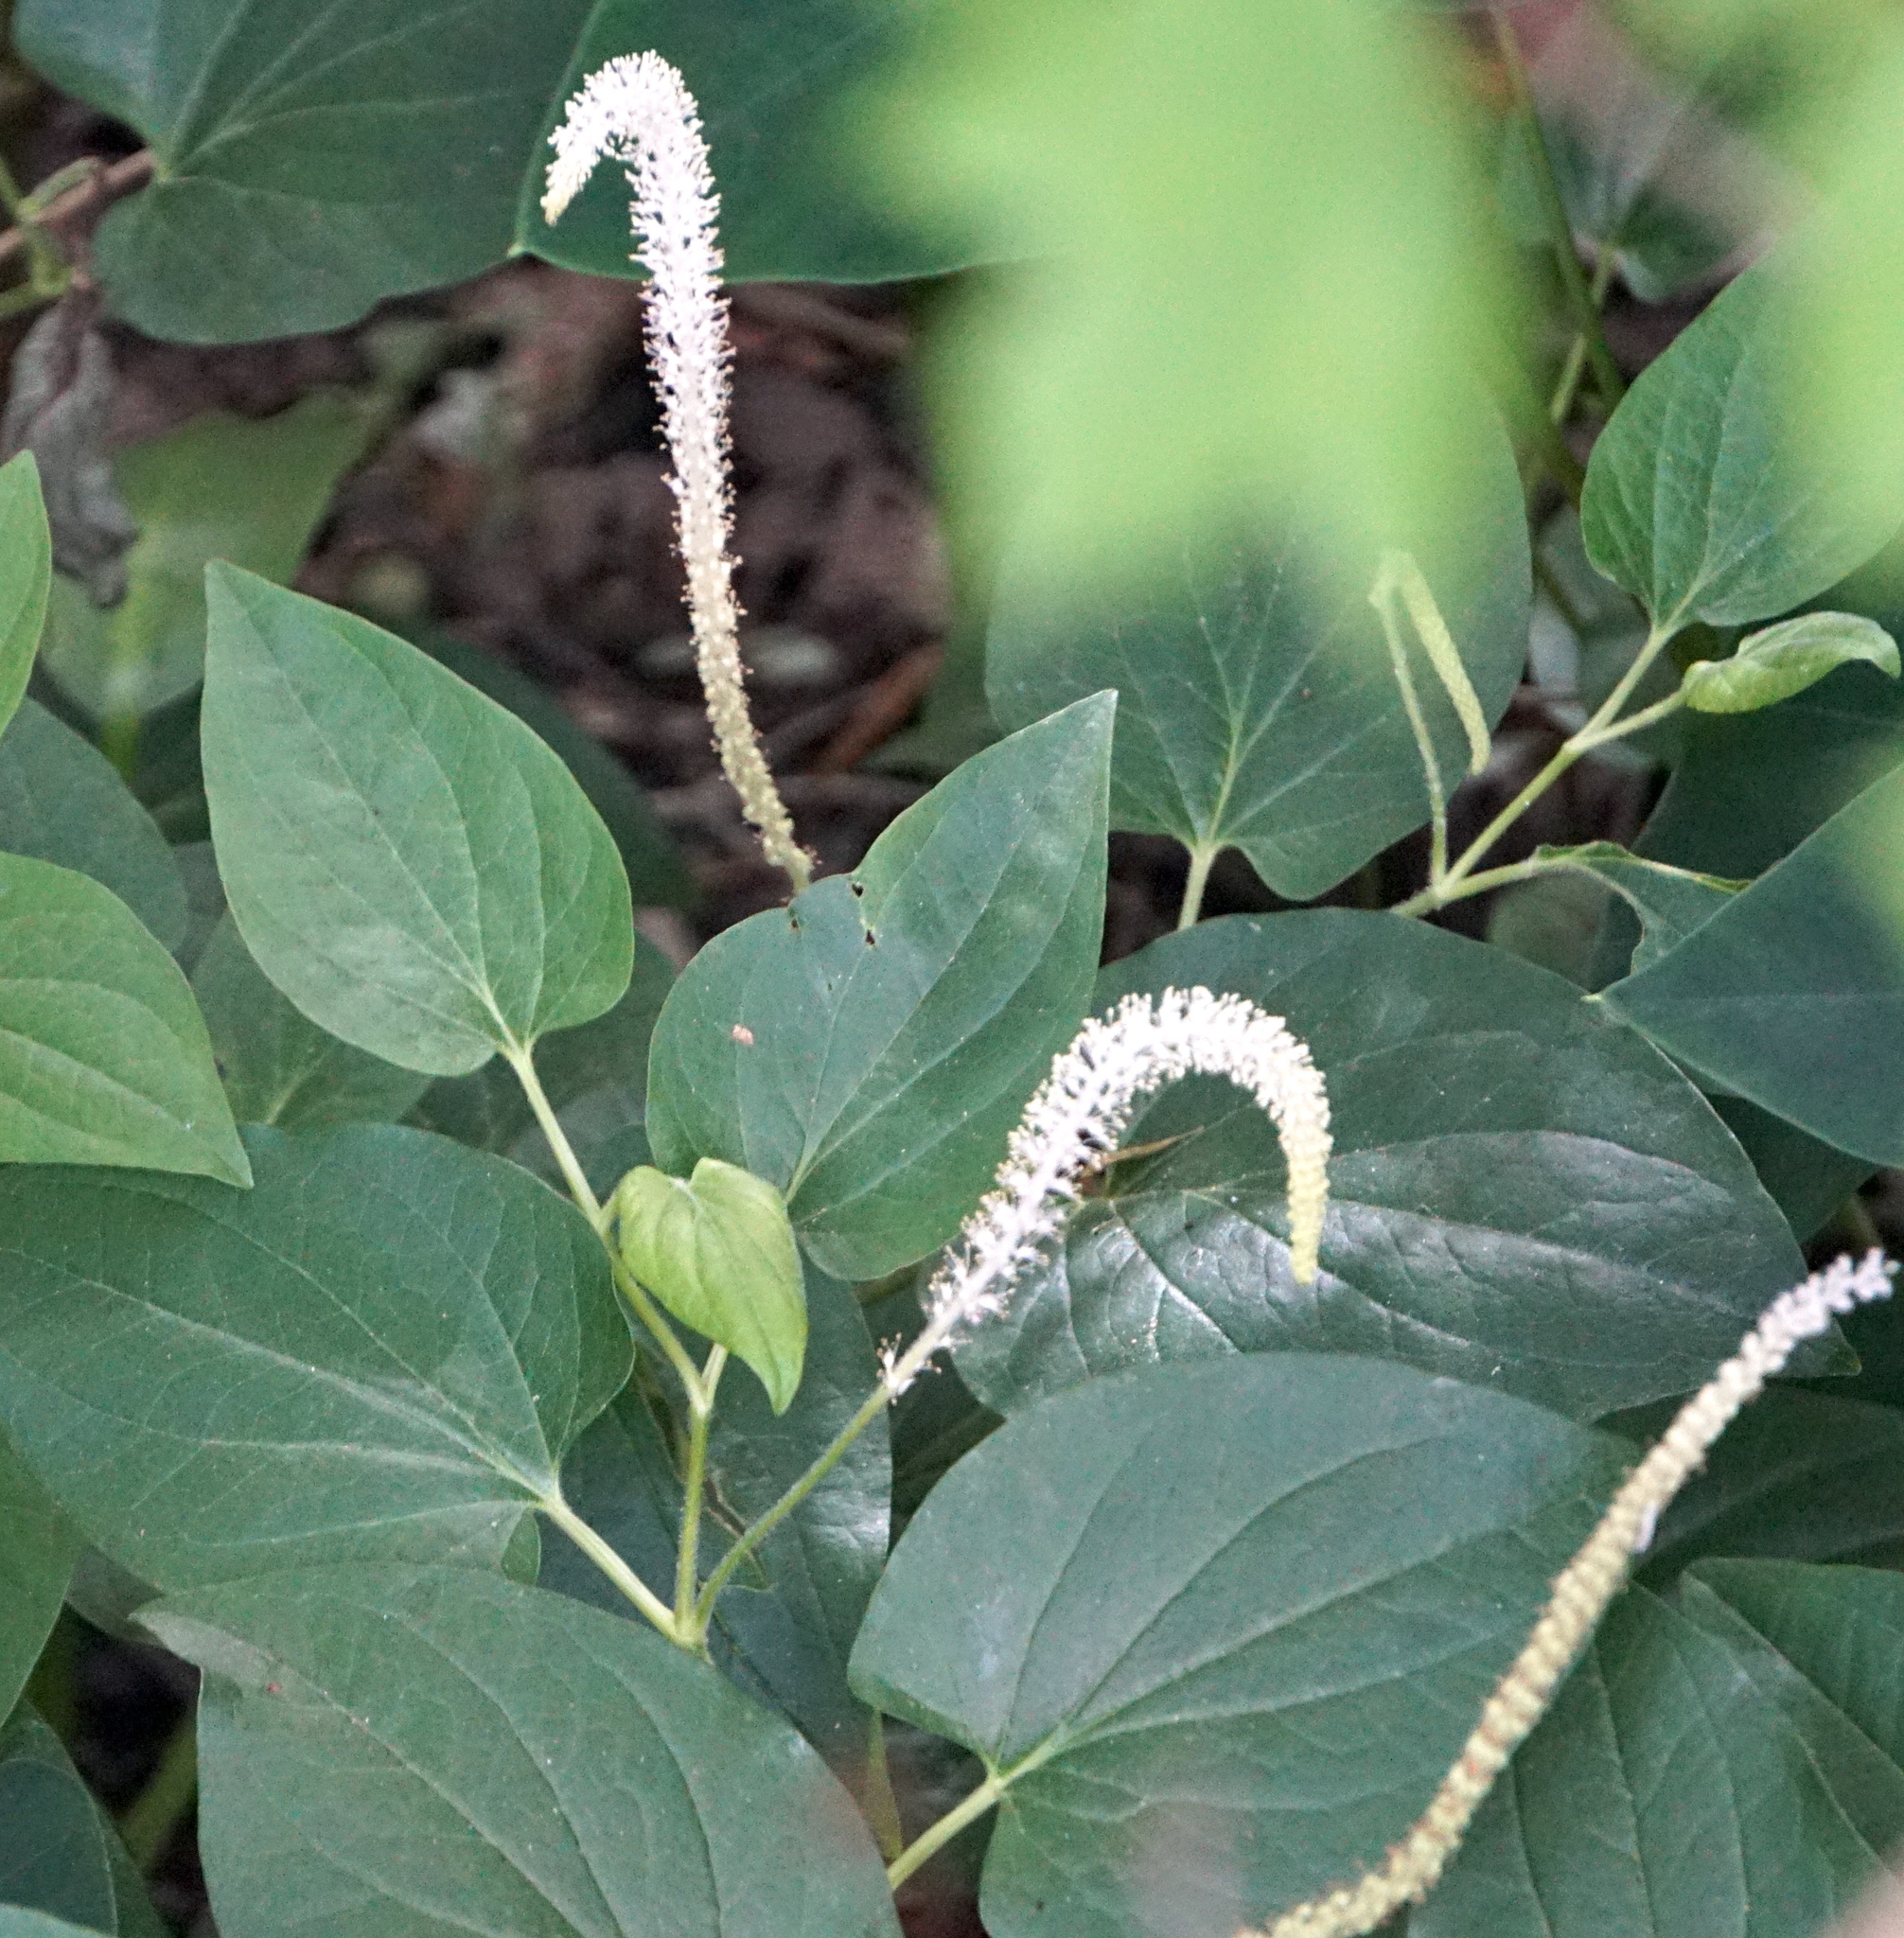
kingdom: Plantae
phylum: Tracheophyta
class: Magnoliopsida
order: Piperales
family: Saururaceae
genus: Saururus
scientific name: Saururus cernuus
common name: Lizard's-tail
